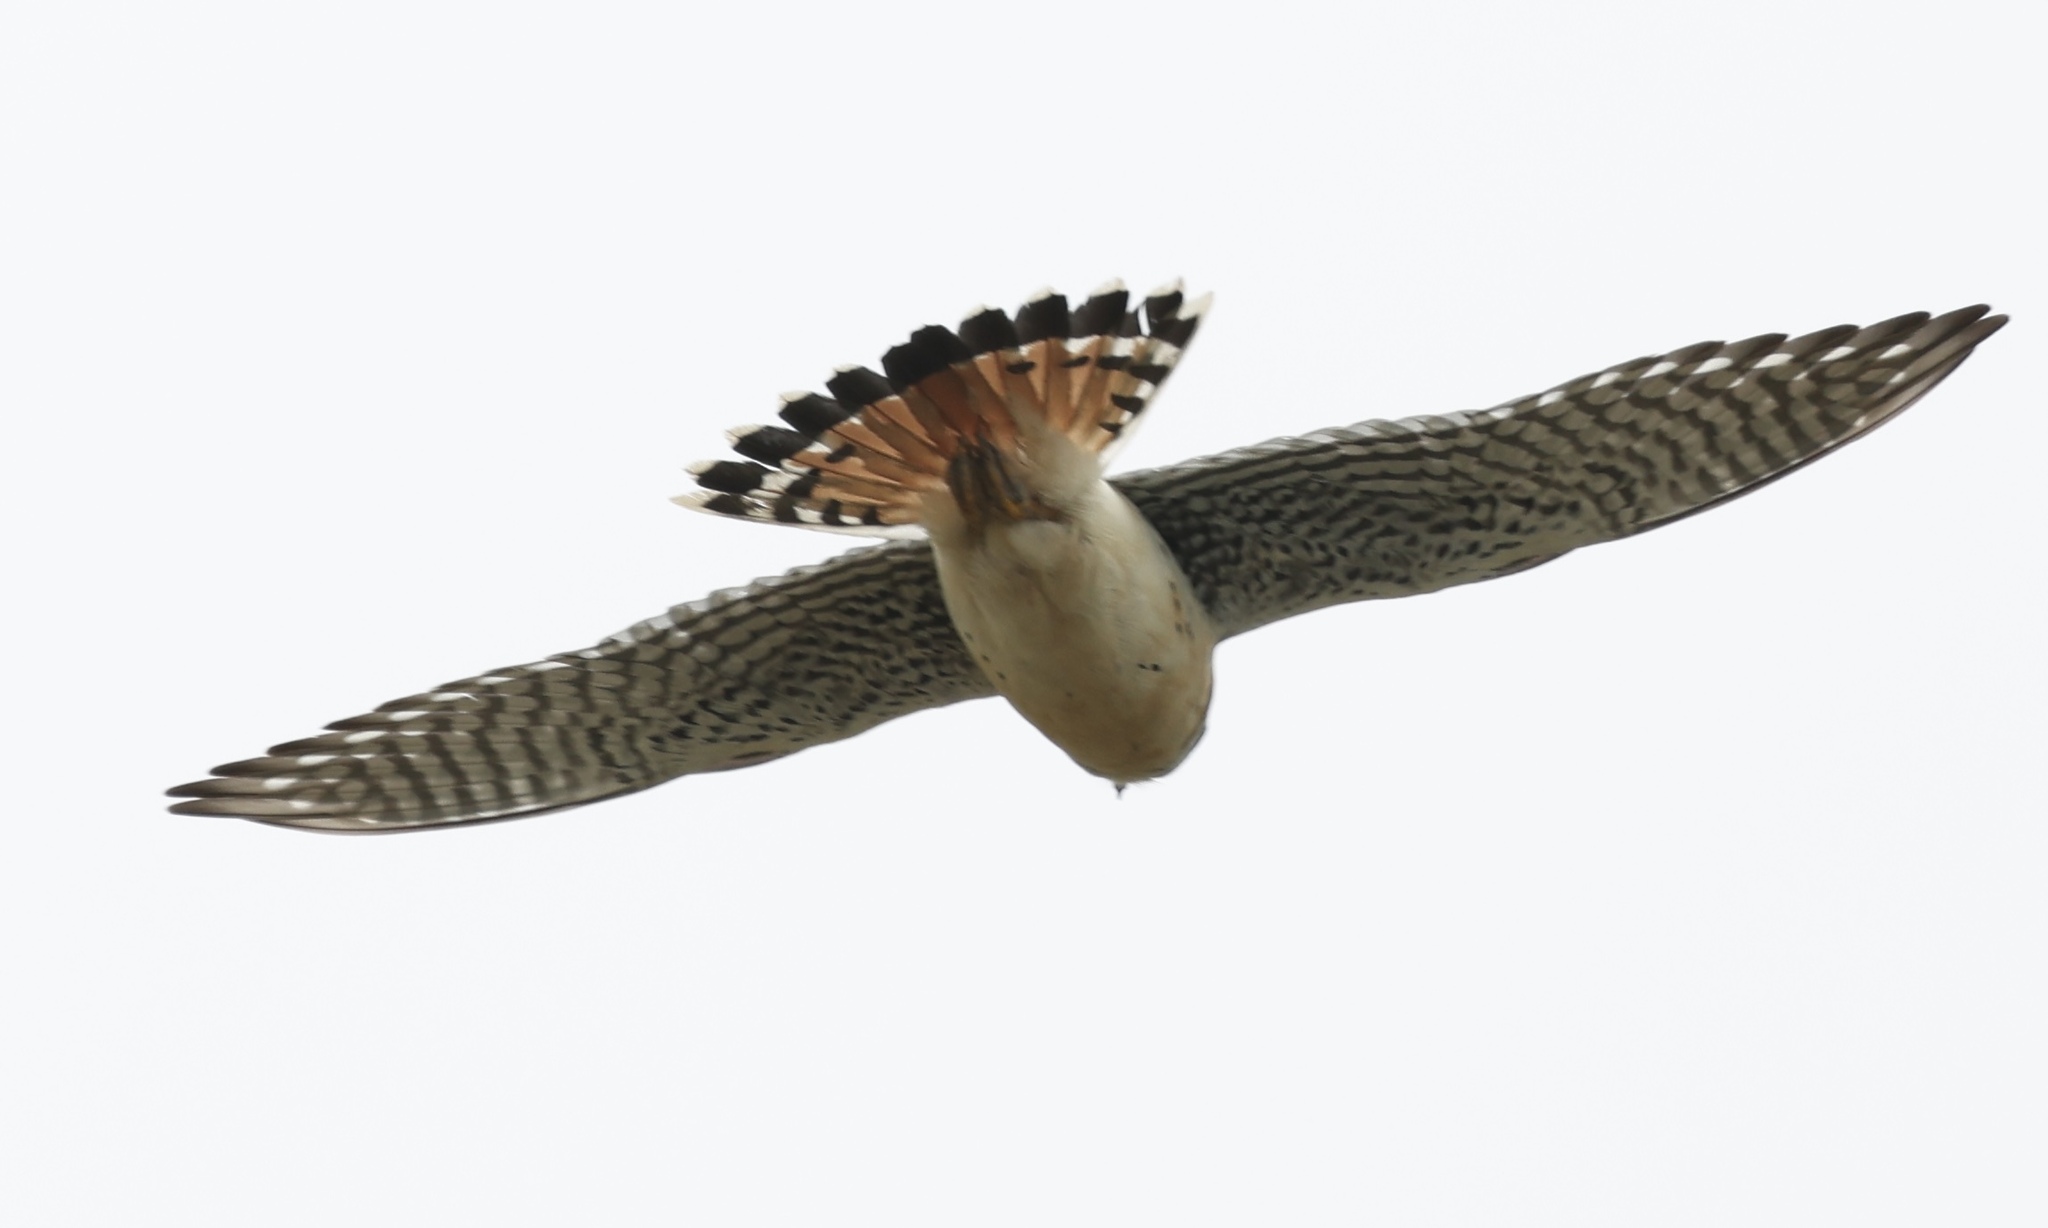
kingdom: Animalia
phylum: Chordata
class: Aves
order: Falconiformes
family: Falconidae
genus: Falco
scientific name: Falco sparverius
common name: American kestrel
